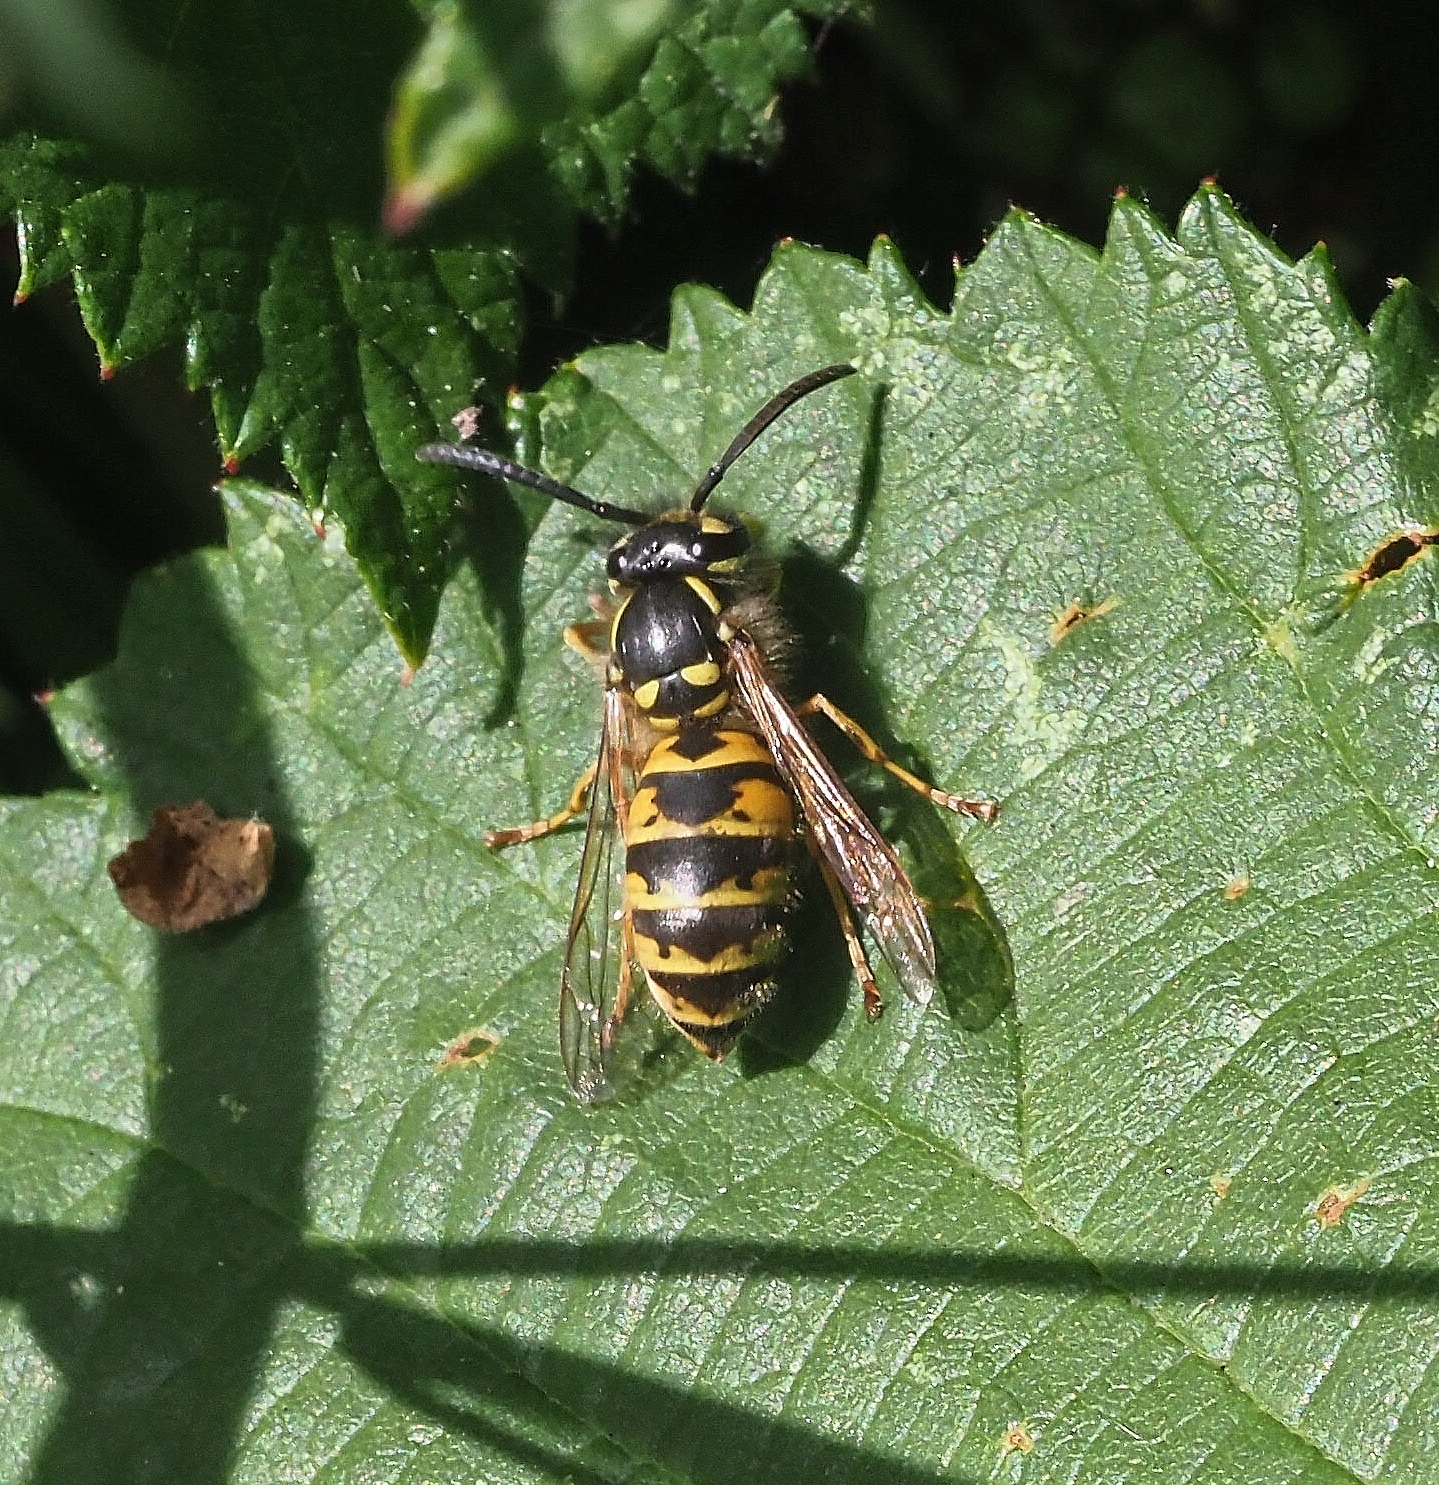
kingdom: Animalia
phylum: Arthropoda
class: Insecta
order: Hymenoptera
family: Vespidae
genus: Vespula
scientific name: Vespula vulgaris
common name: Common wasp
